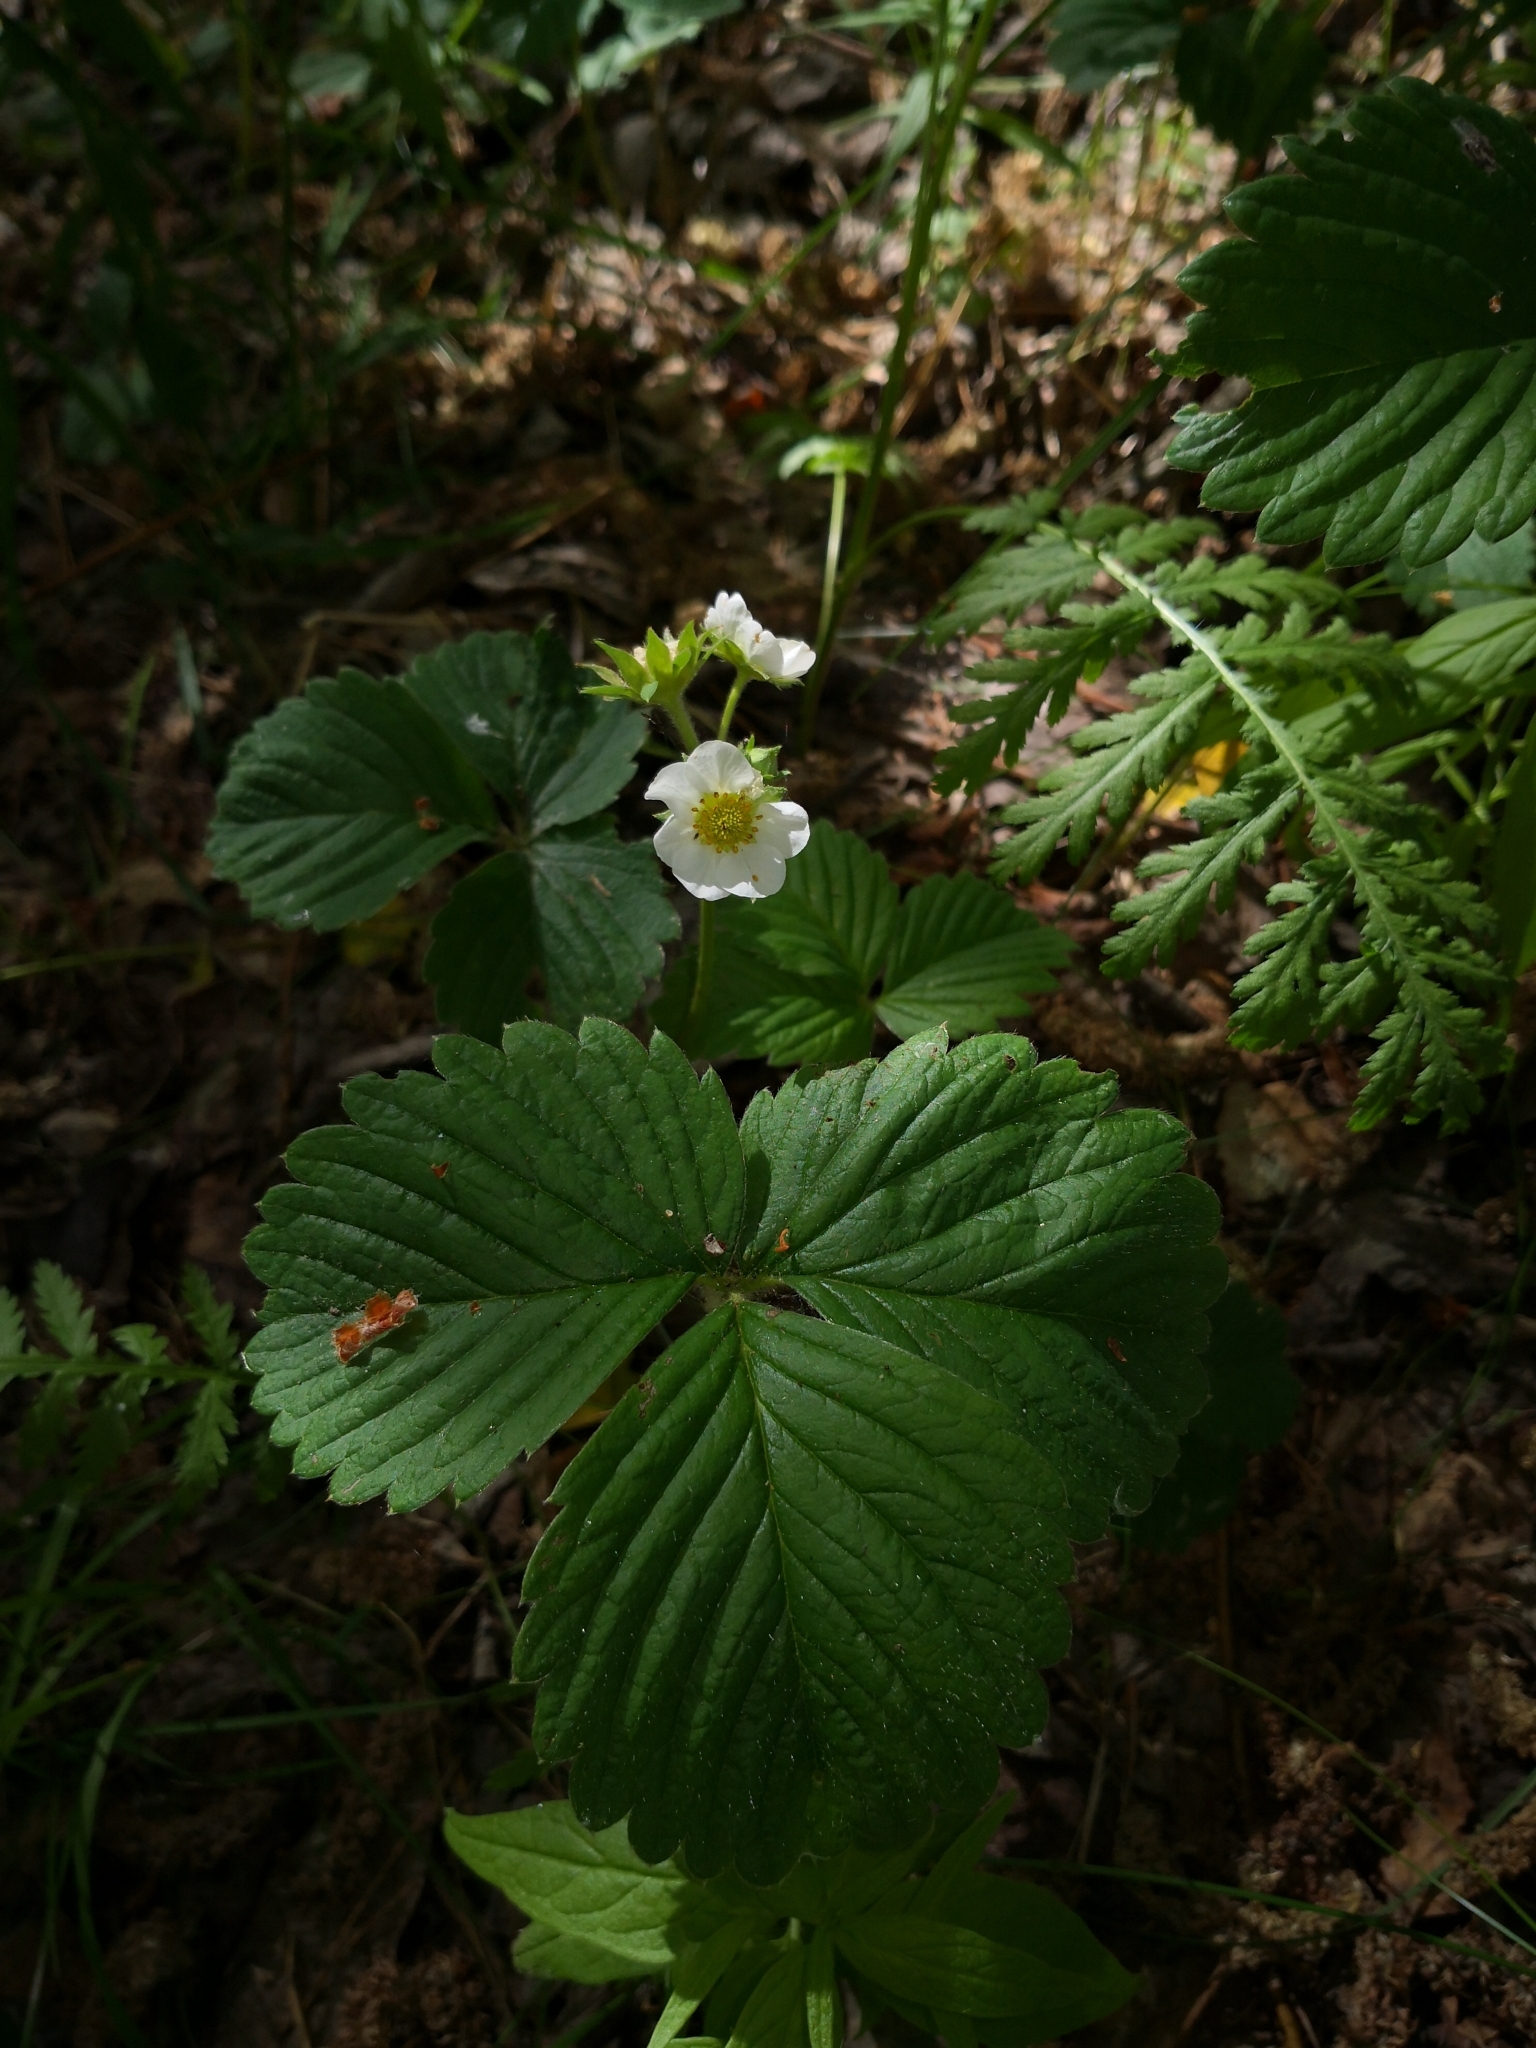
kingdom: Plantae
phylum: Tracheophyta
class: Magnoliopsida
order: Rosales
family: Rosaceae
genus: Fragaria
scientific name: Fragaria ananassa
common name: Garden strawberry
